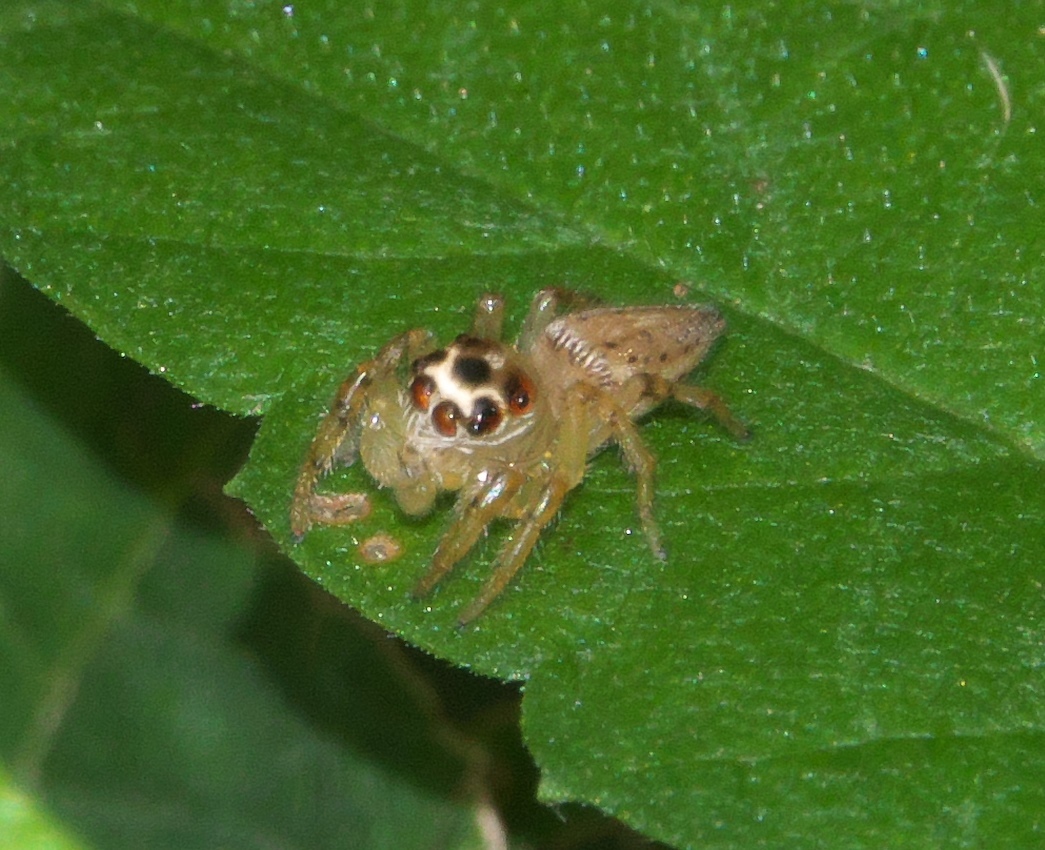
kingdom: Animalia
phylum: Arthropoda
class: Arachnida
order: Araneae
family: Salticidae
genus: Colonus
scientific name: Colonus sylvanus
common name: Jumping spiders
